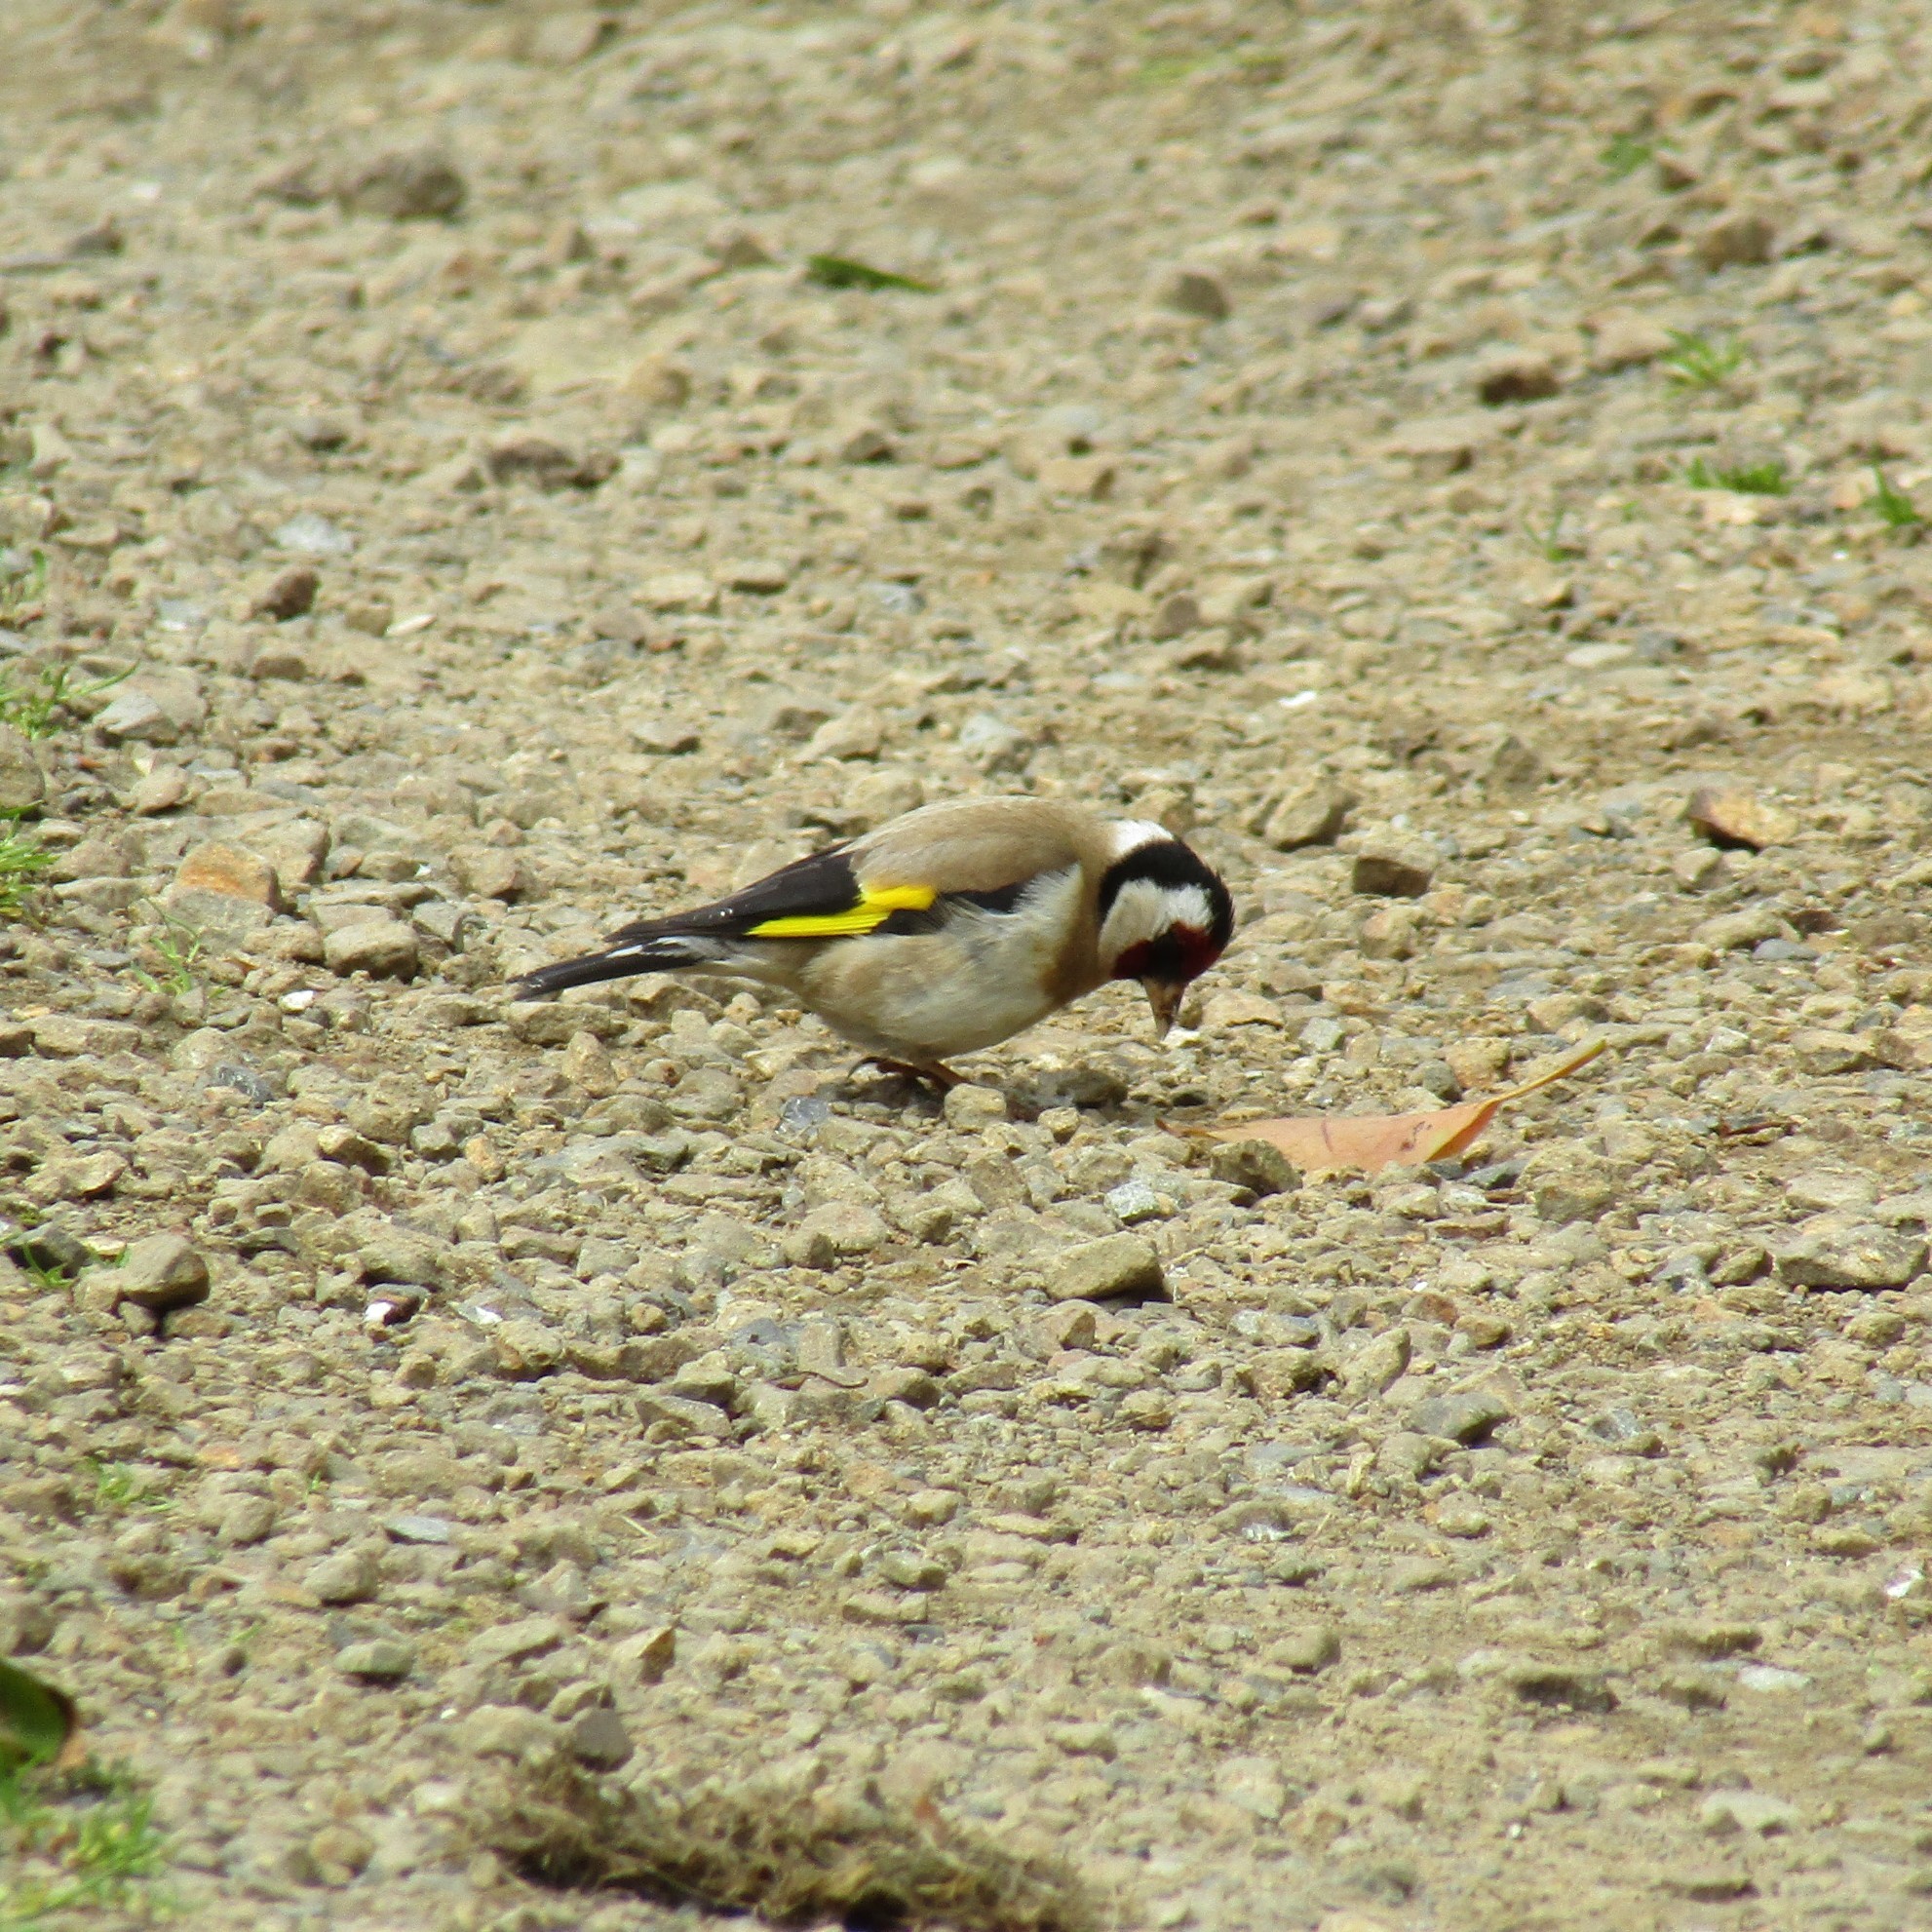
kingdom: Animalia
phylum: Chordata
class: Aves
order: Passeriformes
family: Fringillidae
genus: Carduelis
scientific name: Carduelis carduelis
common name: European goldfinch
